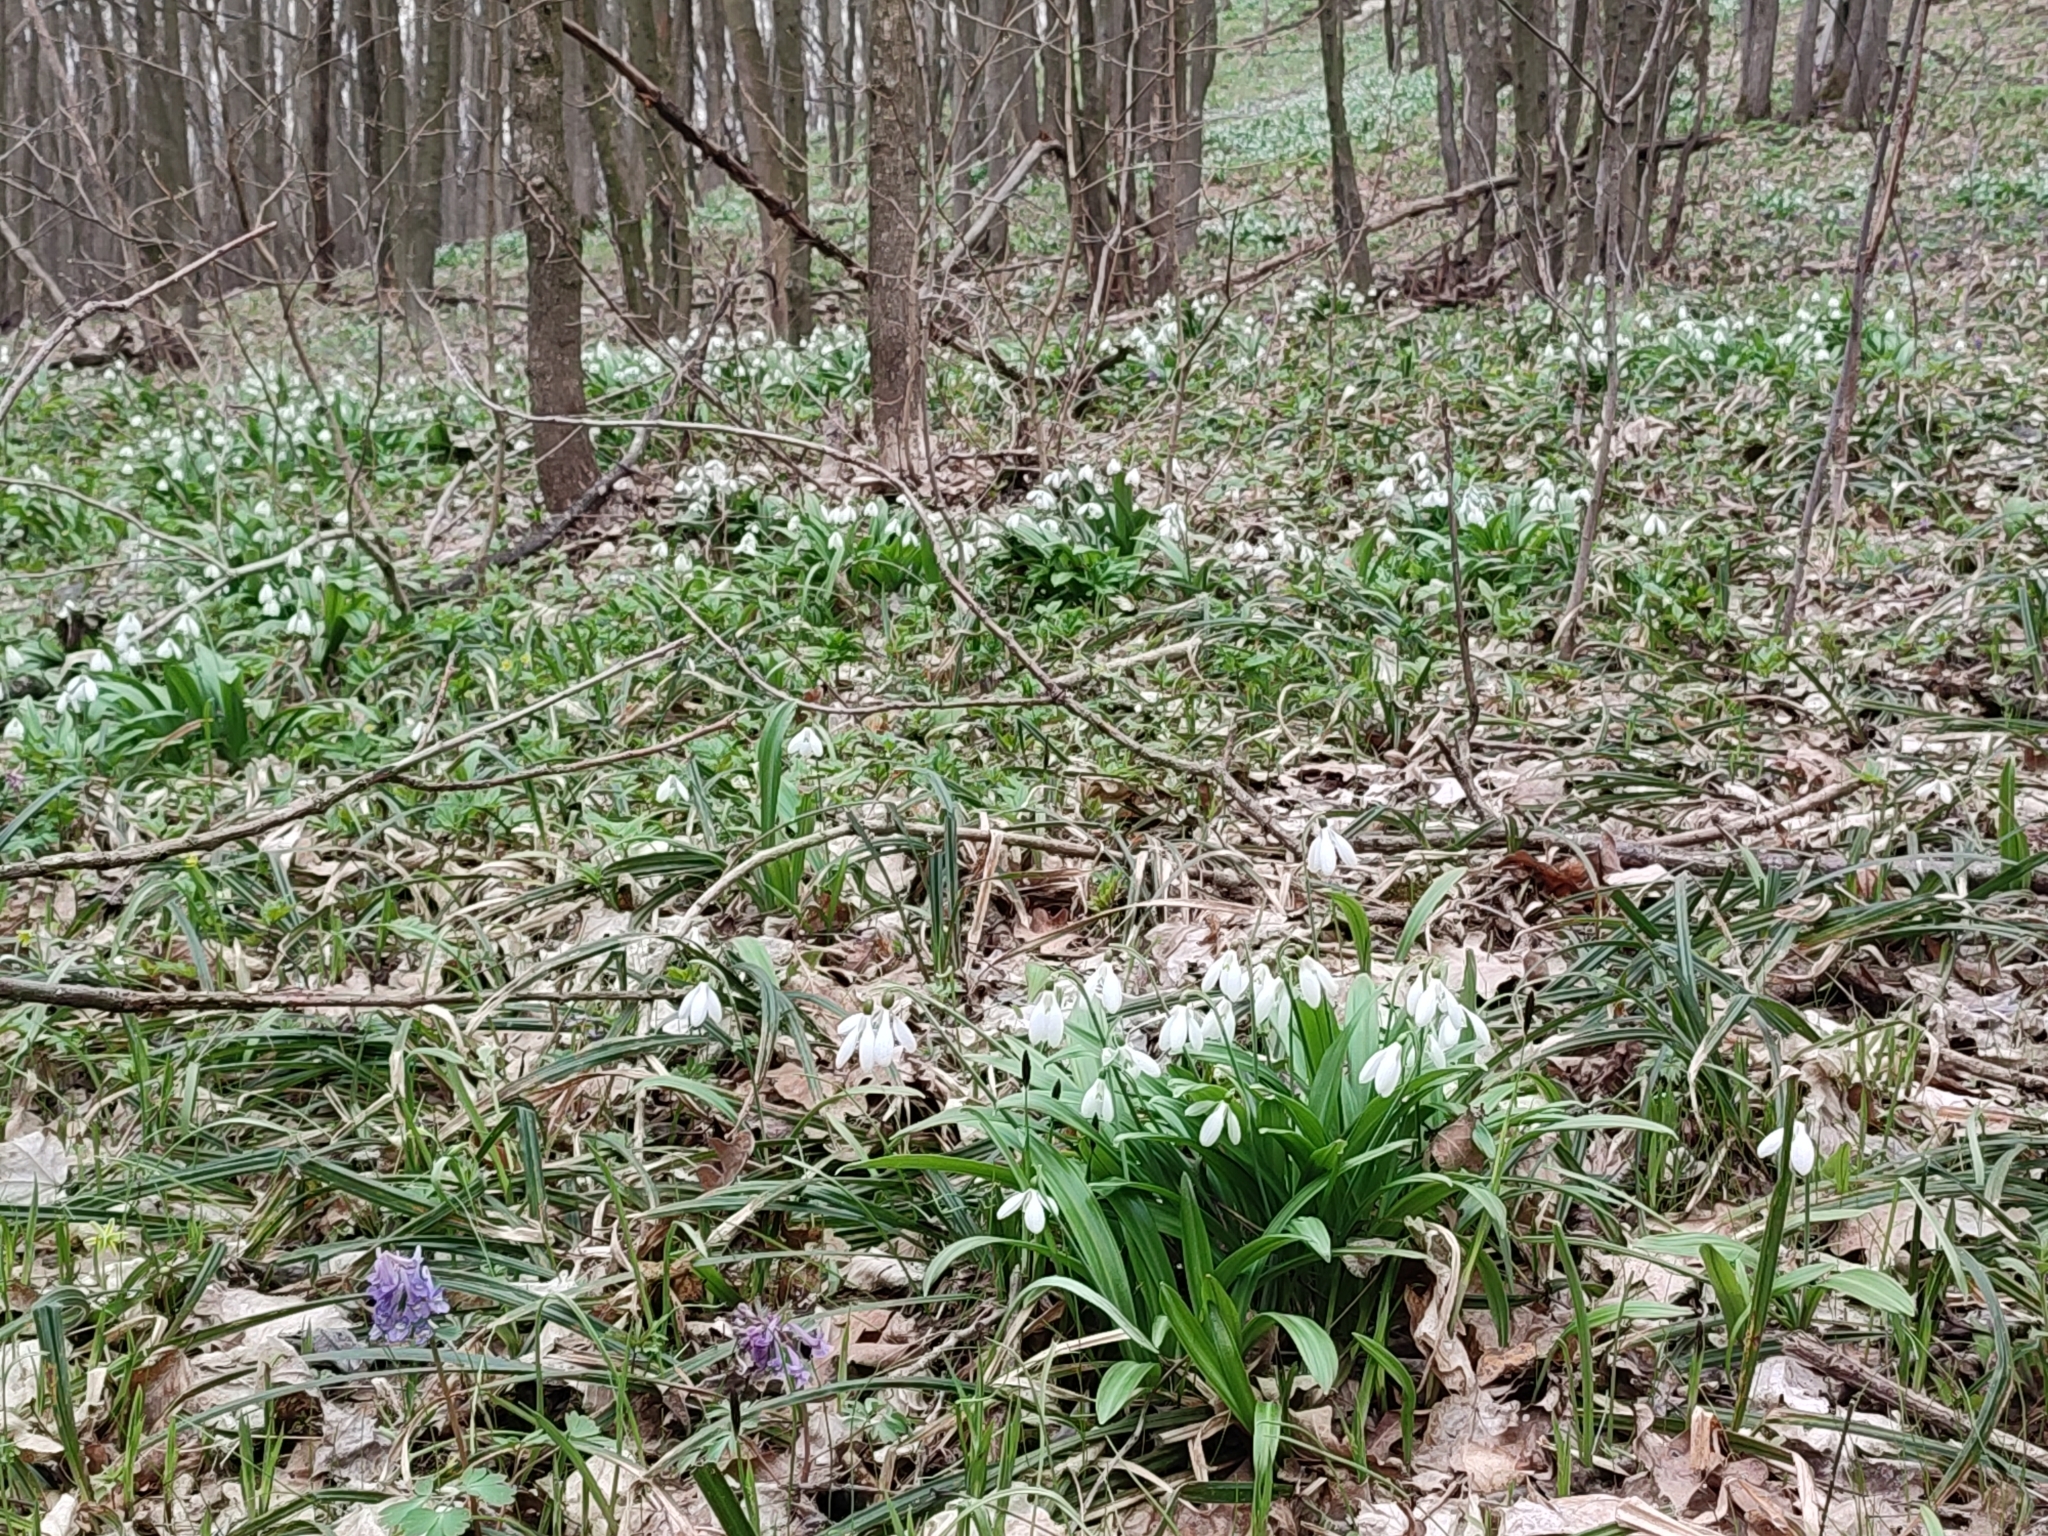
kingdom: Plantae
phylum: Tracheophyta
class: Liliopsida
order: Asparagales
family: Amaryllidaceae
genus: Galanthus
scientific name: Galanthus plicatus
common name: Pleated snowdrop
